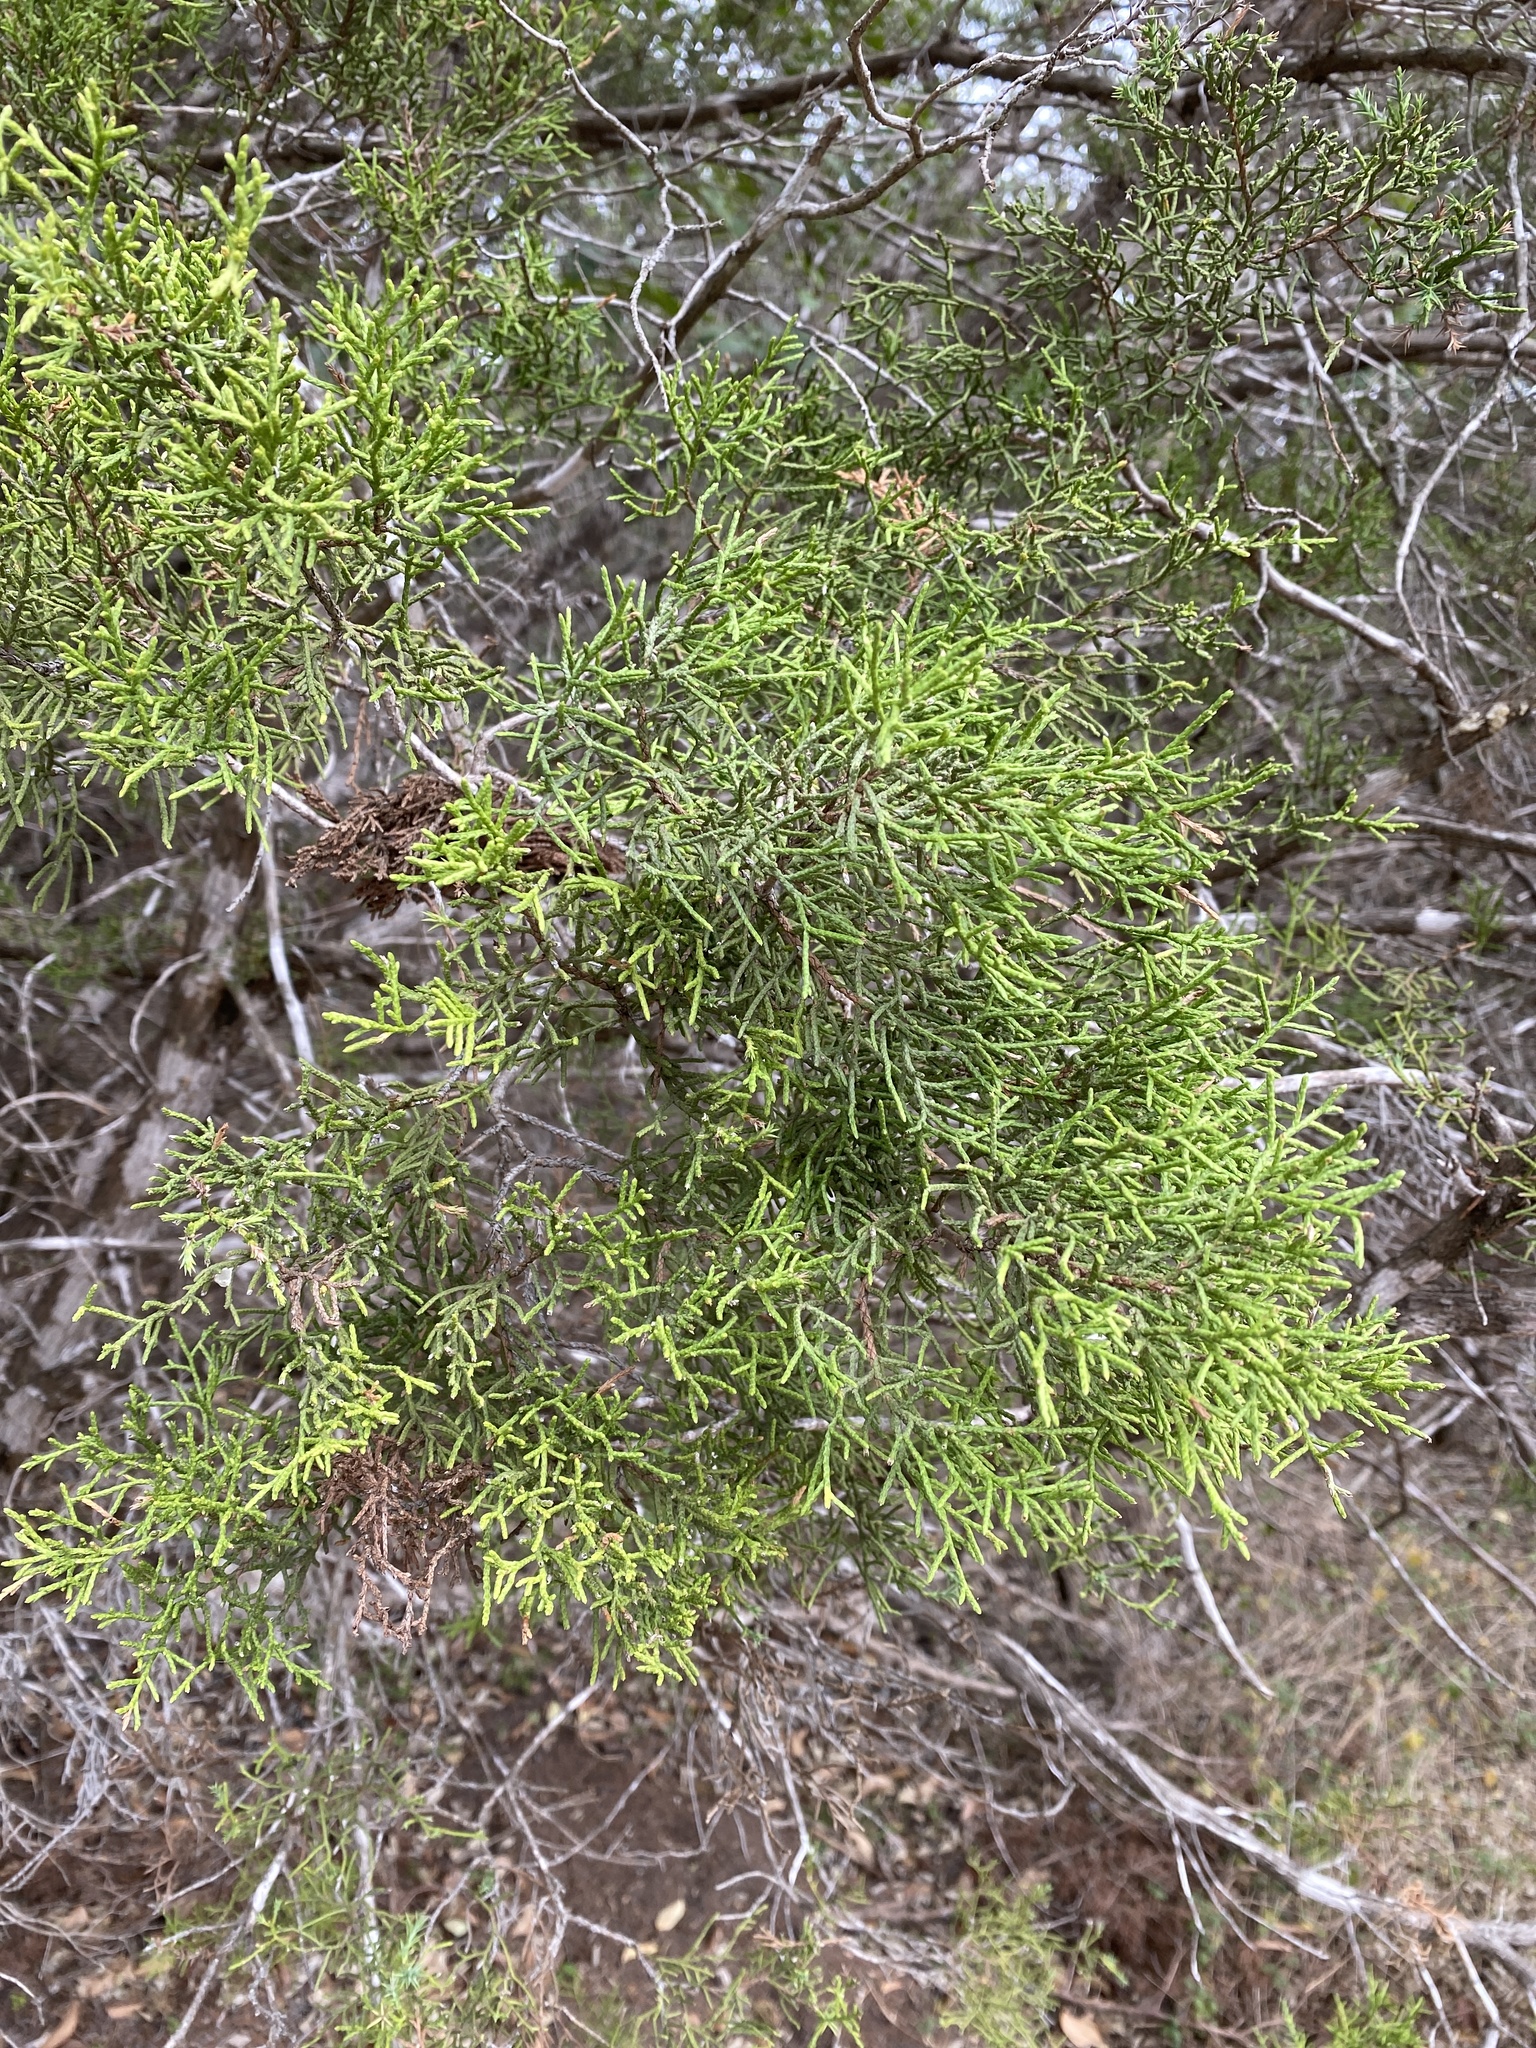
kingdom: Plantae
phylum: Tracheophyta
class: Pinopsida
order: Pinales
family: Cupressaceae
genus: Juniperus
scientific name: Juniperus ashei
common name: Mexican juniper
